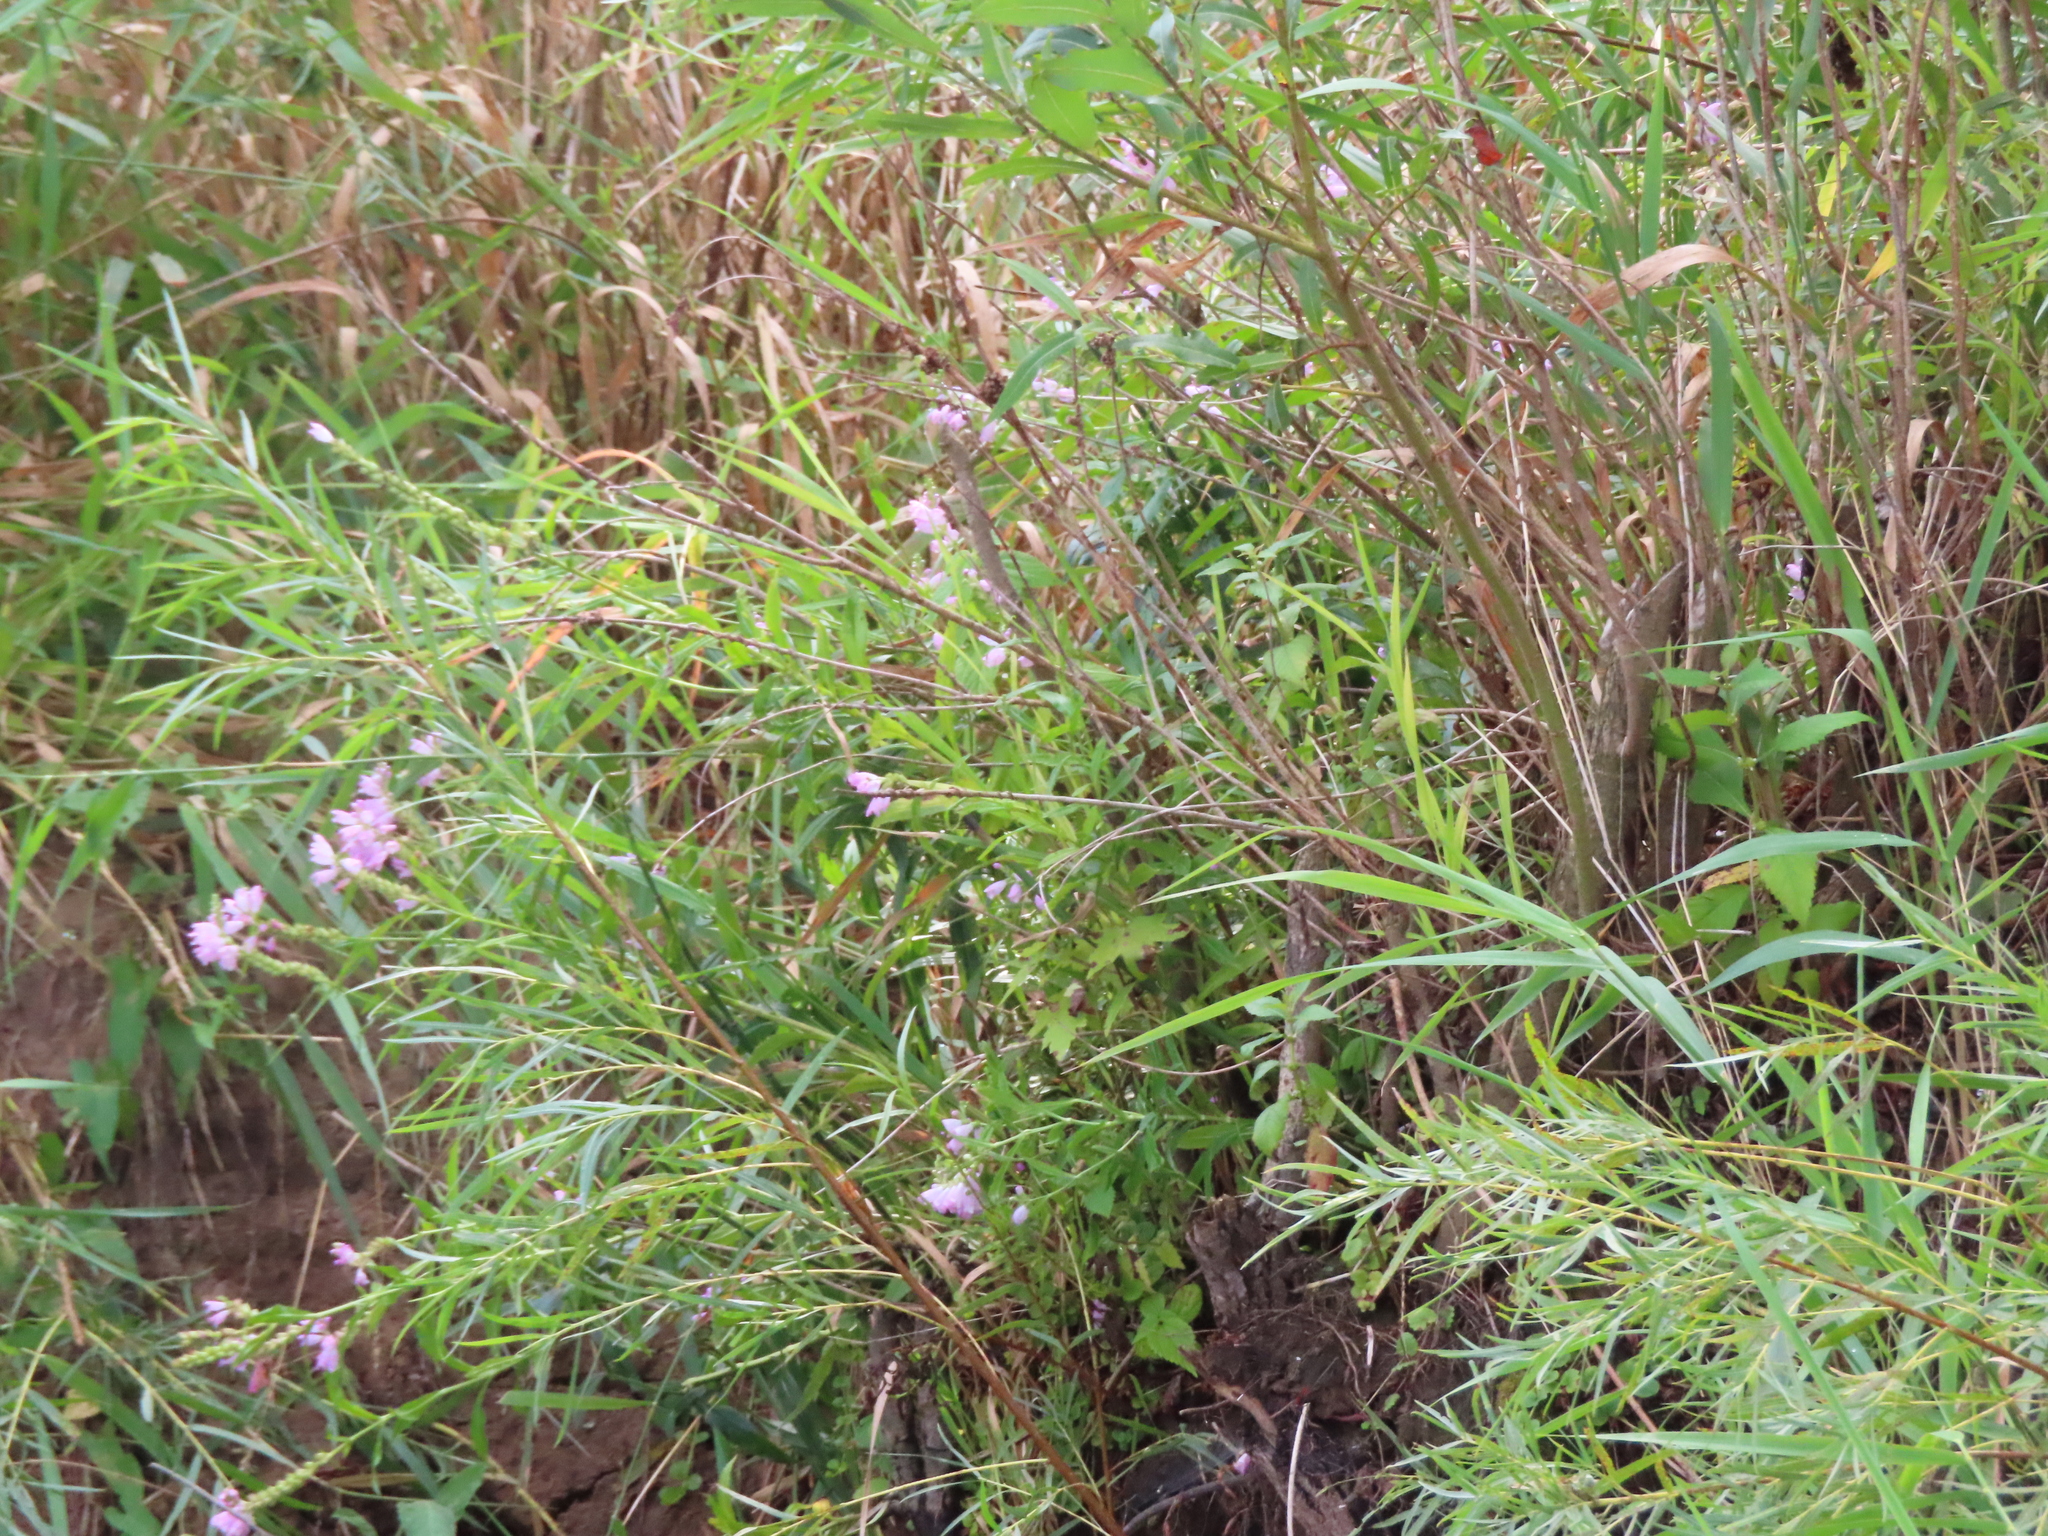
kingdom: Plantae
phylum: Tracheophyta
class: Magnoliopsida
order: Lamiales
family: Lamiaceae
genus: Physostegia
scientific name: Physostegia virginiana
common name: Obedient-plant
